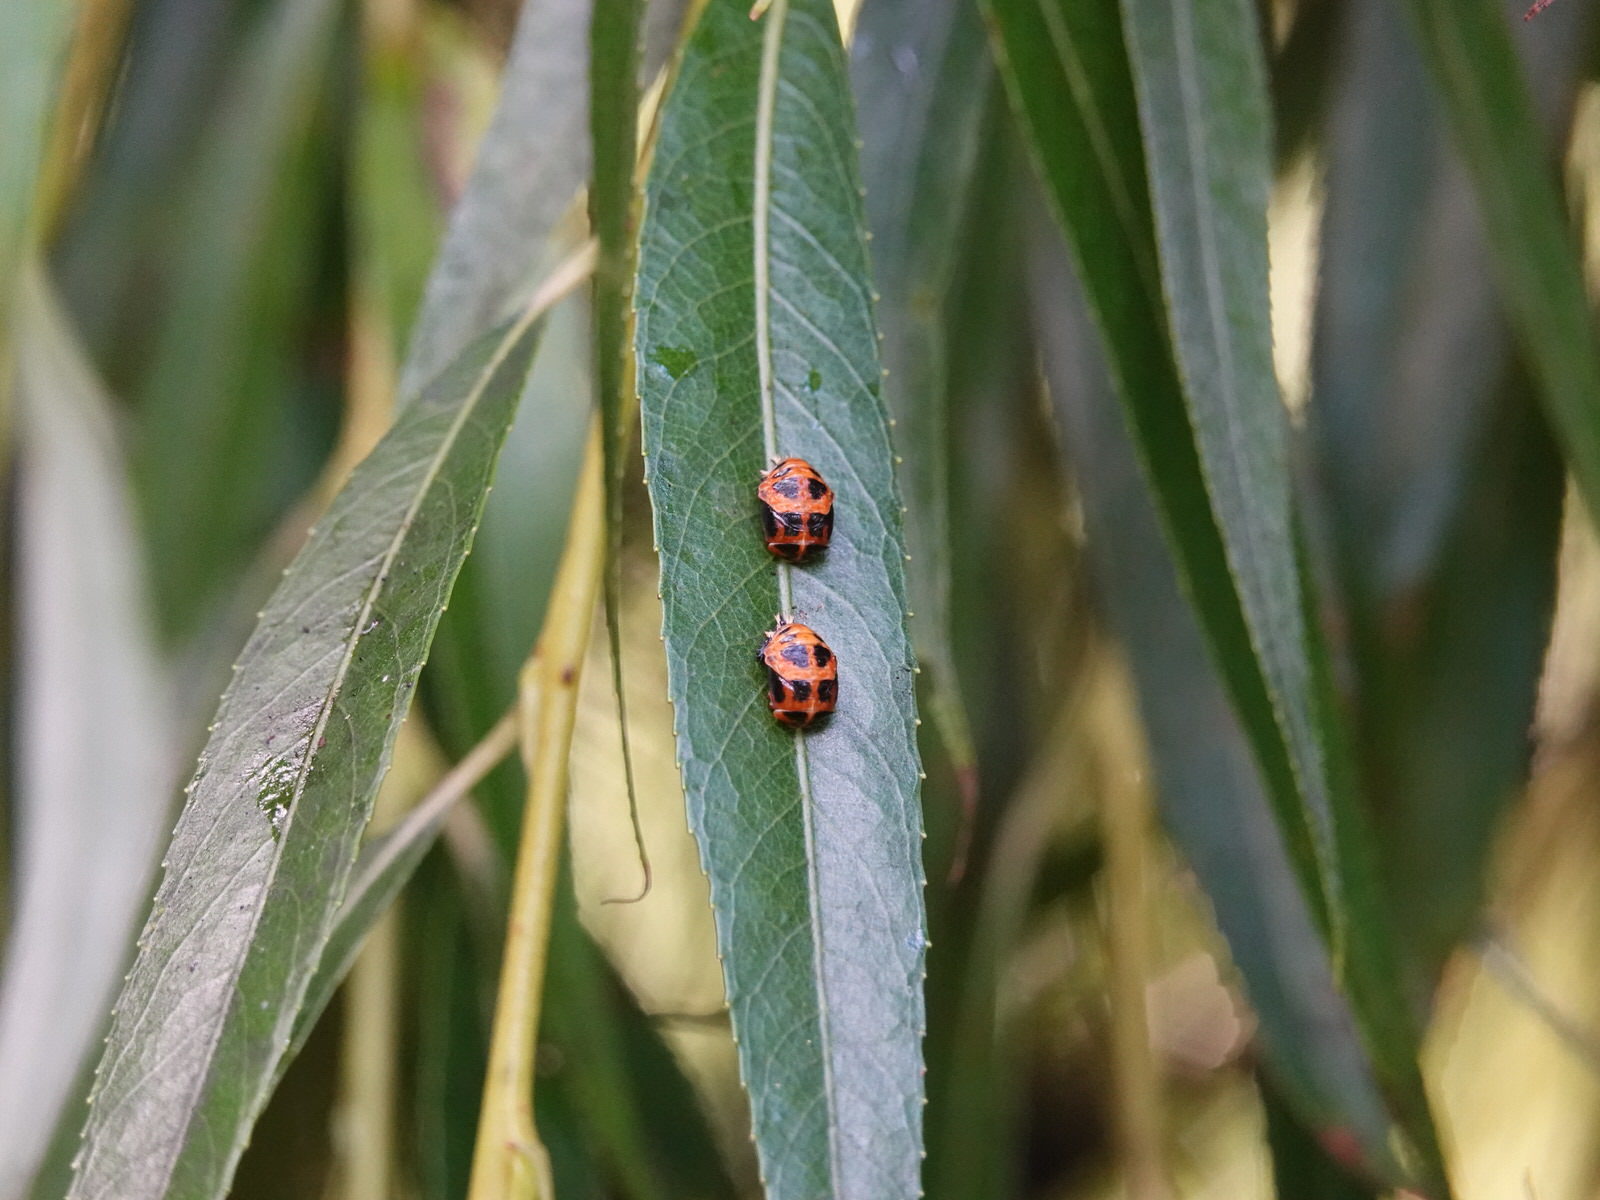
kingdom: Animalia
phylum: Arthropoda
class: Insecta
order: Coleoptera
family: Coccinellidae
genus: Harmonia
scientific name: Harmonia axyridis
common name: Harlequin ladybird
